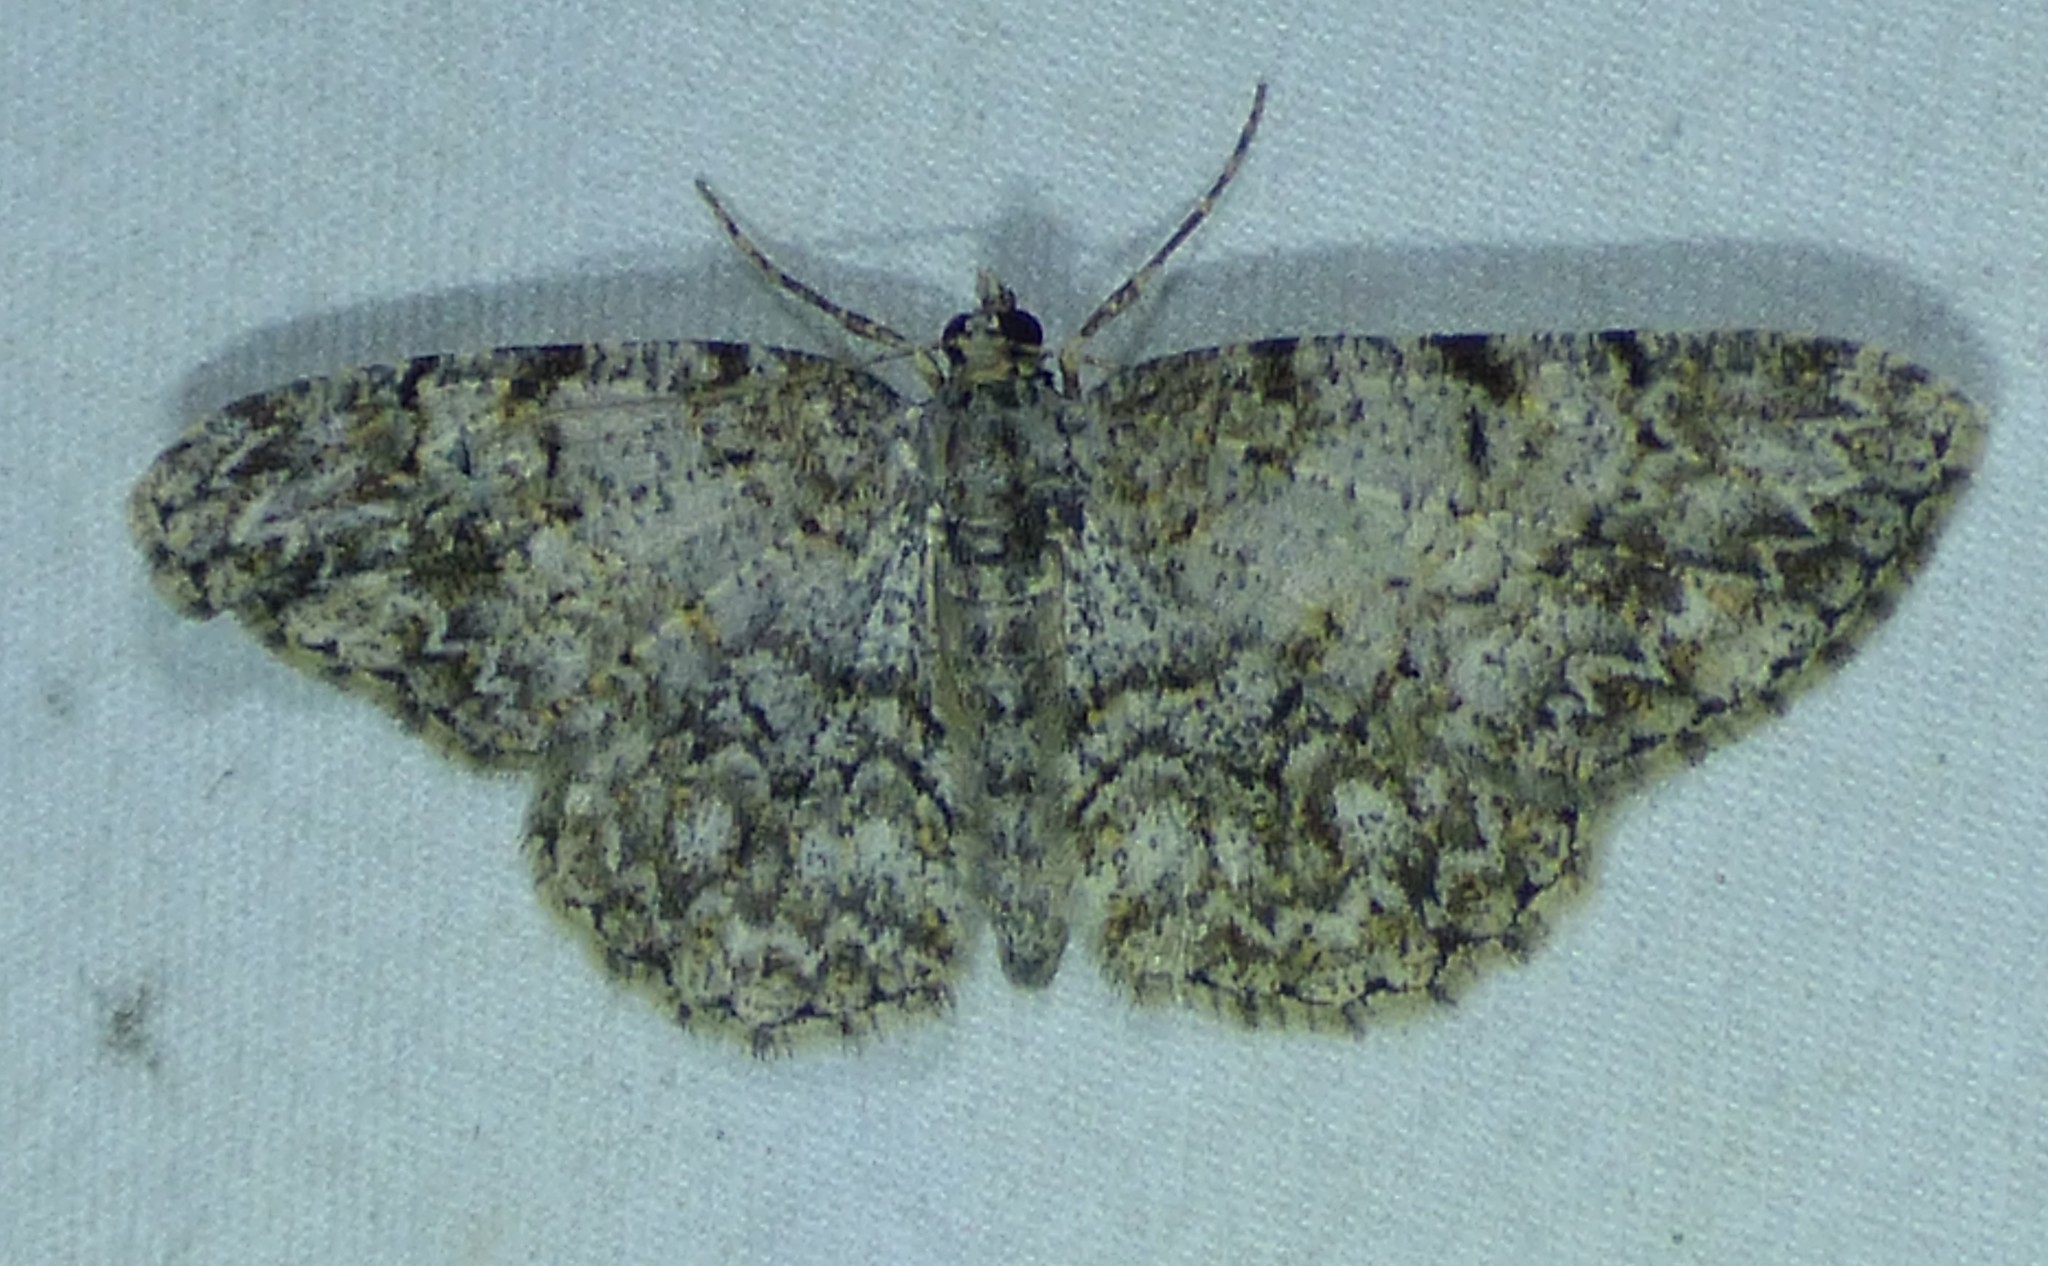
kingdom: Animalia
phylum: Arthropoda
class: Insecta
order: Lepidoptera
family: Geometridae
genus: Protoboarmia
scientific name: Protoboarmia porcelaria
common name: Porcelain gray
